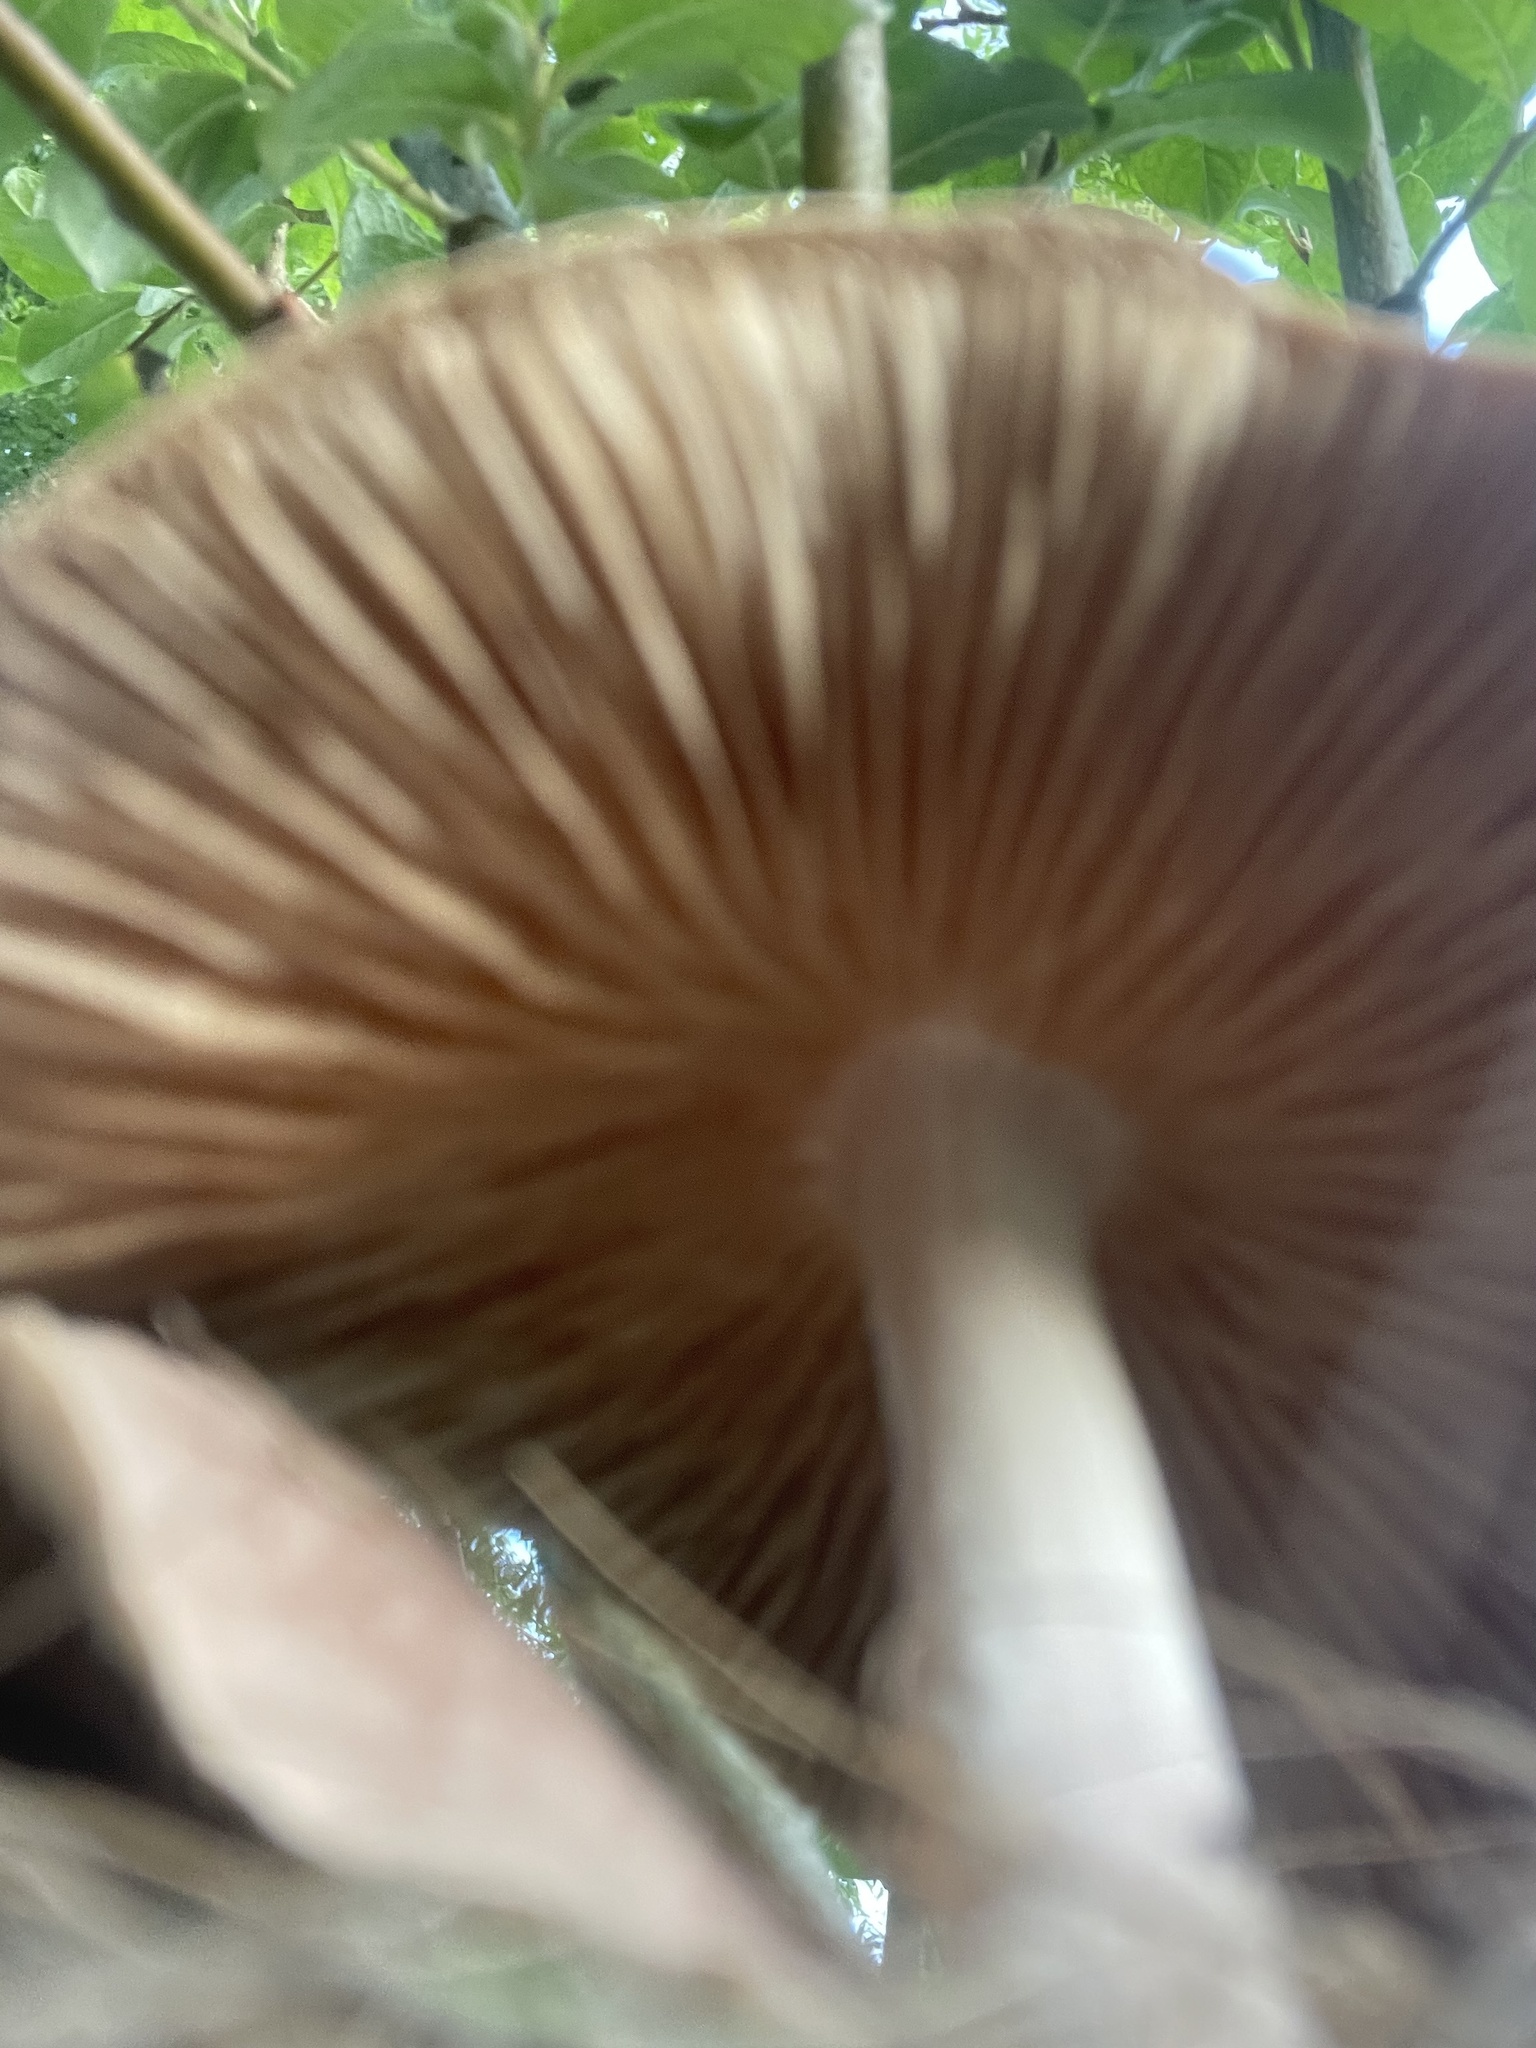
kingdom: Fungi
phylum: Basidiomycota
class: Agaricomycetes
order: Agaricales
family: Omphalotaceae
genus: Collybiopsis
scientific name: Collybiopsis luxurians
